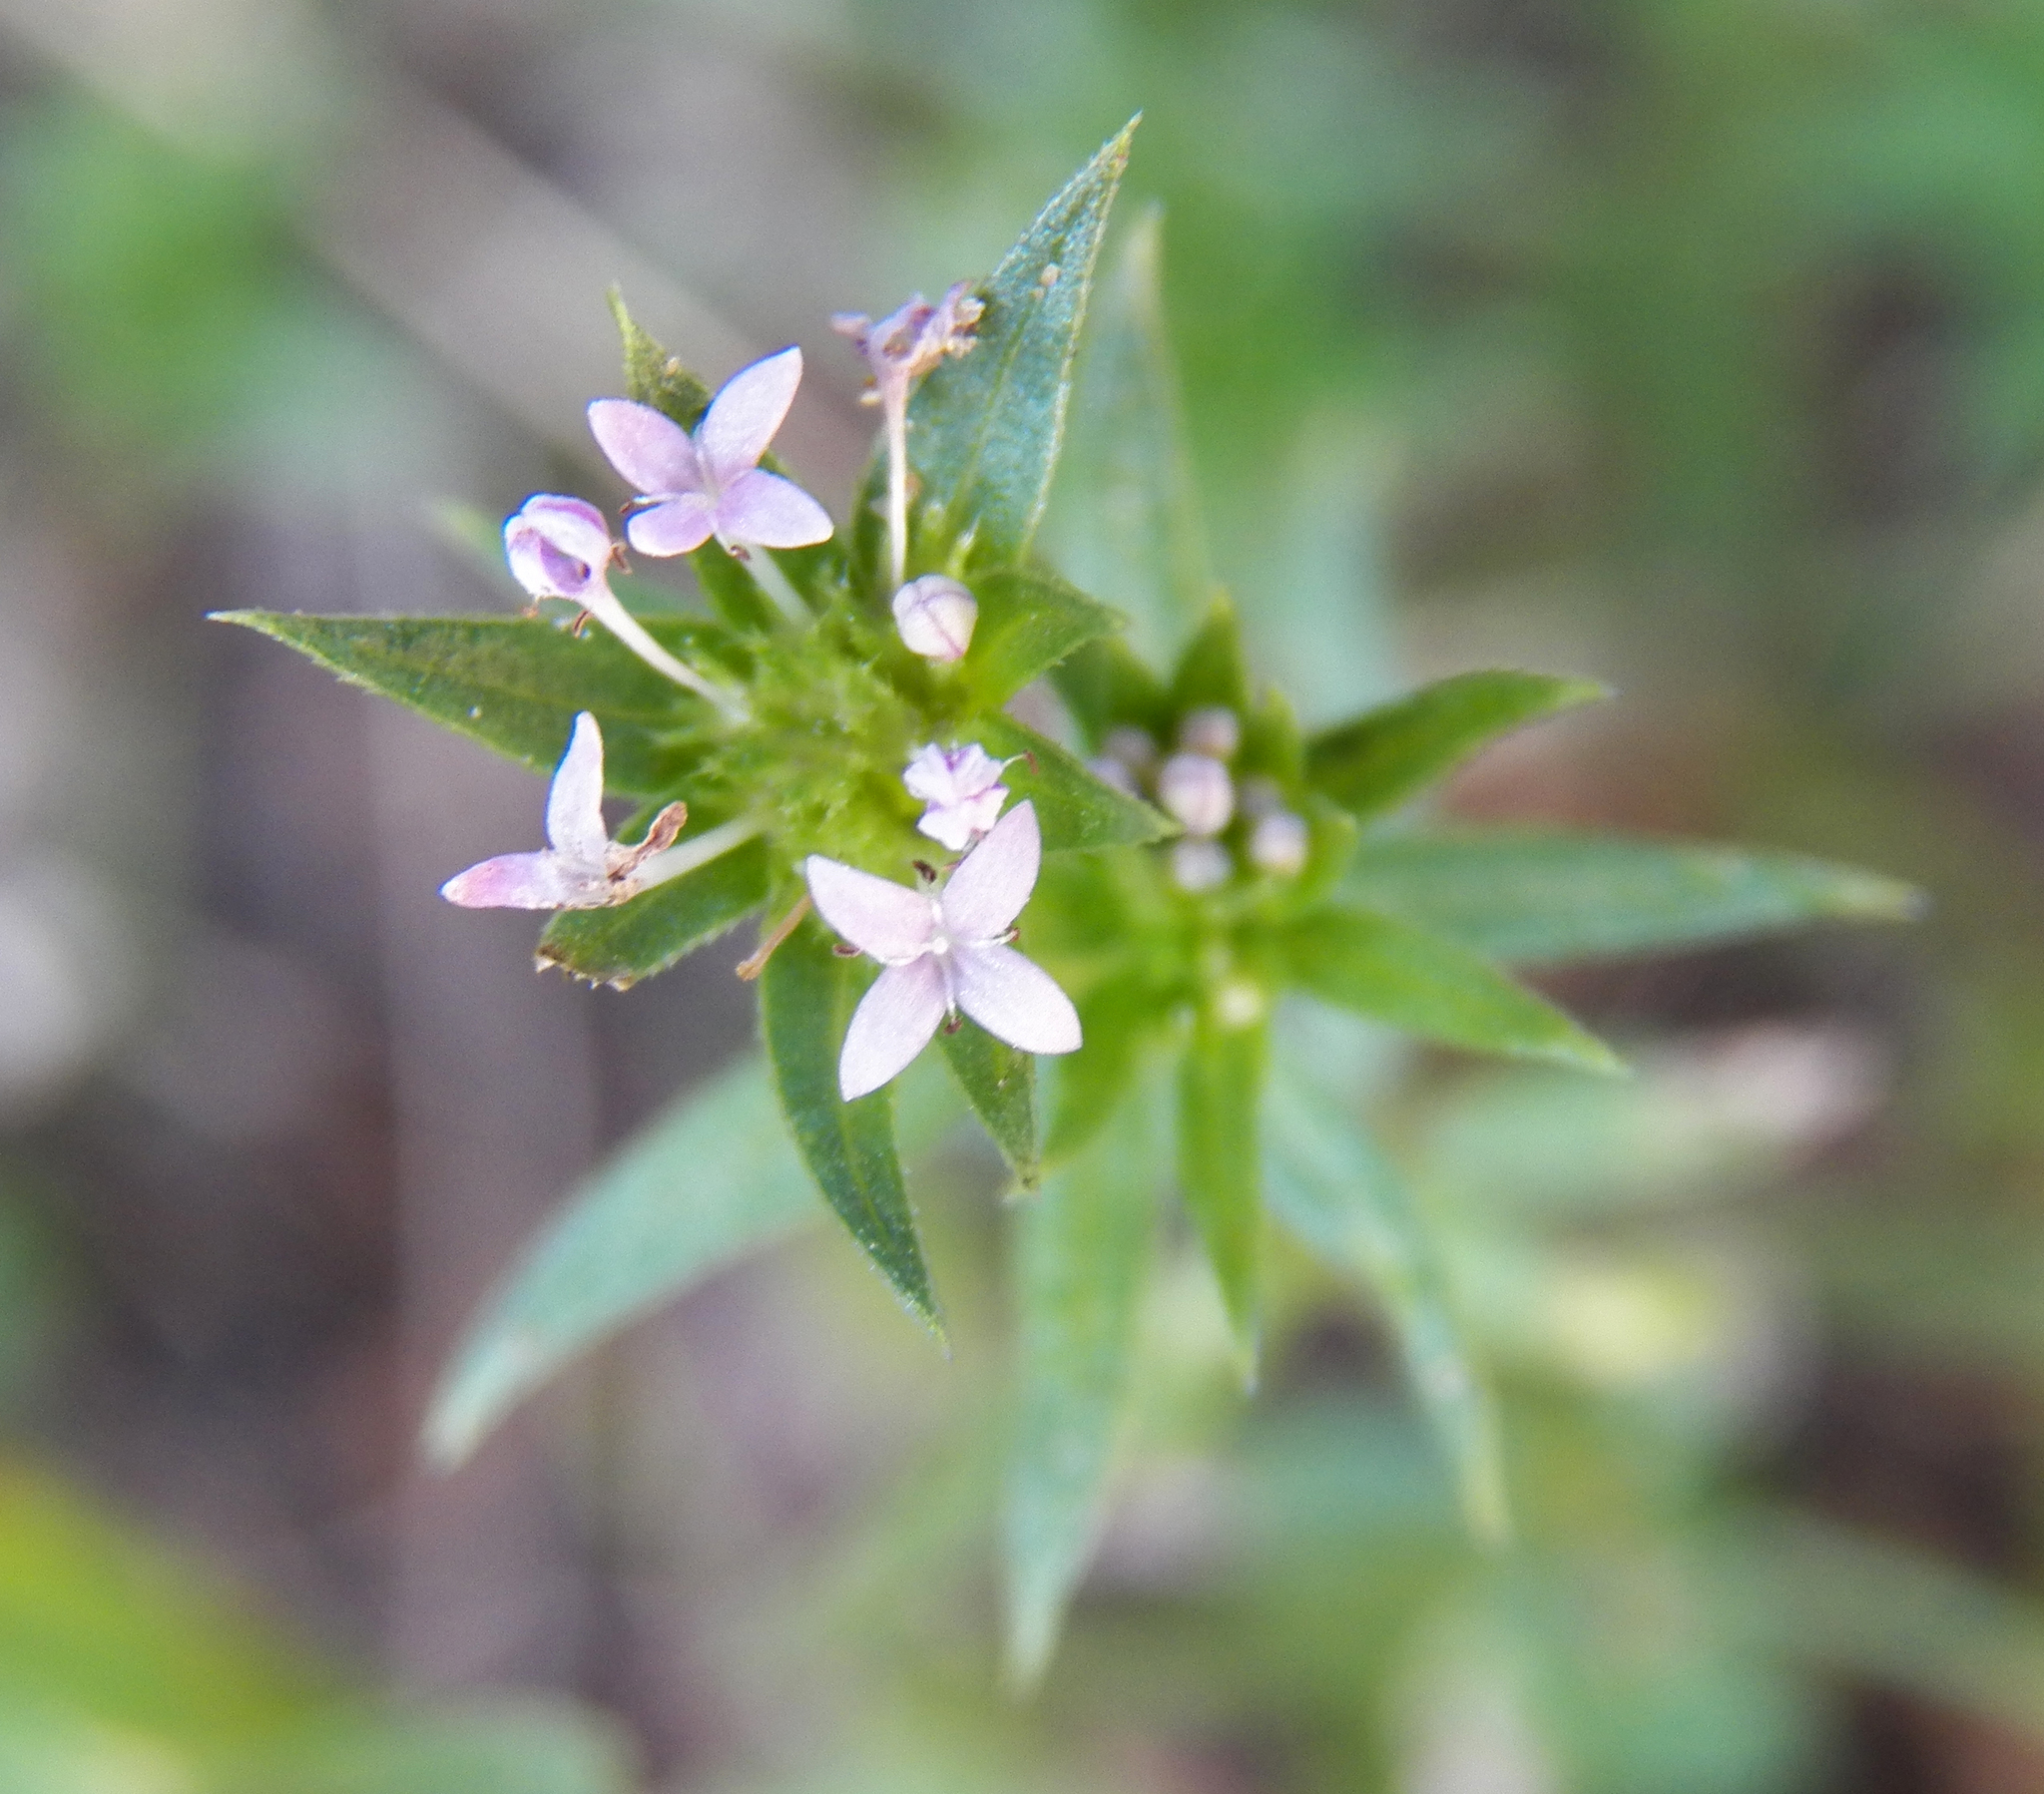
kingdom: Plantae
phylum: Tracheophyta
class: Magnoliopsida
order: Gentianales
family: Rubiaceae
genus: Sherardia
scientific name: Sherardia arvensis
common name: Field madder
